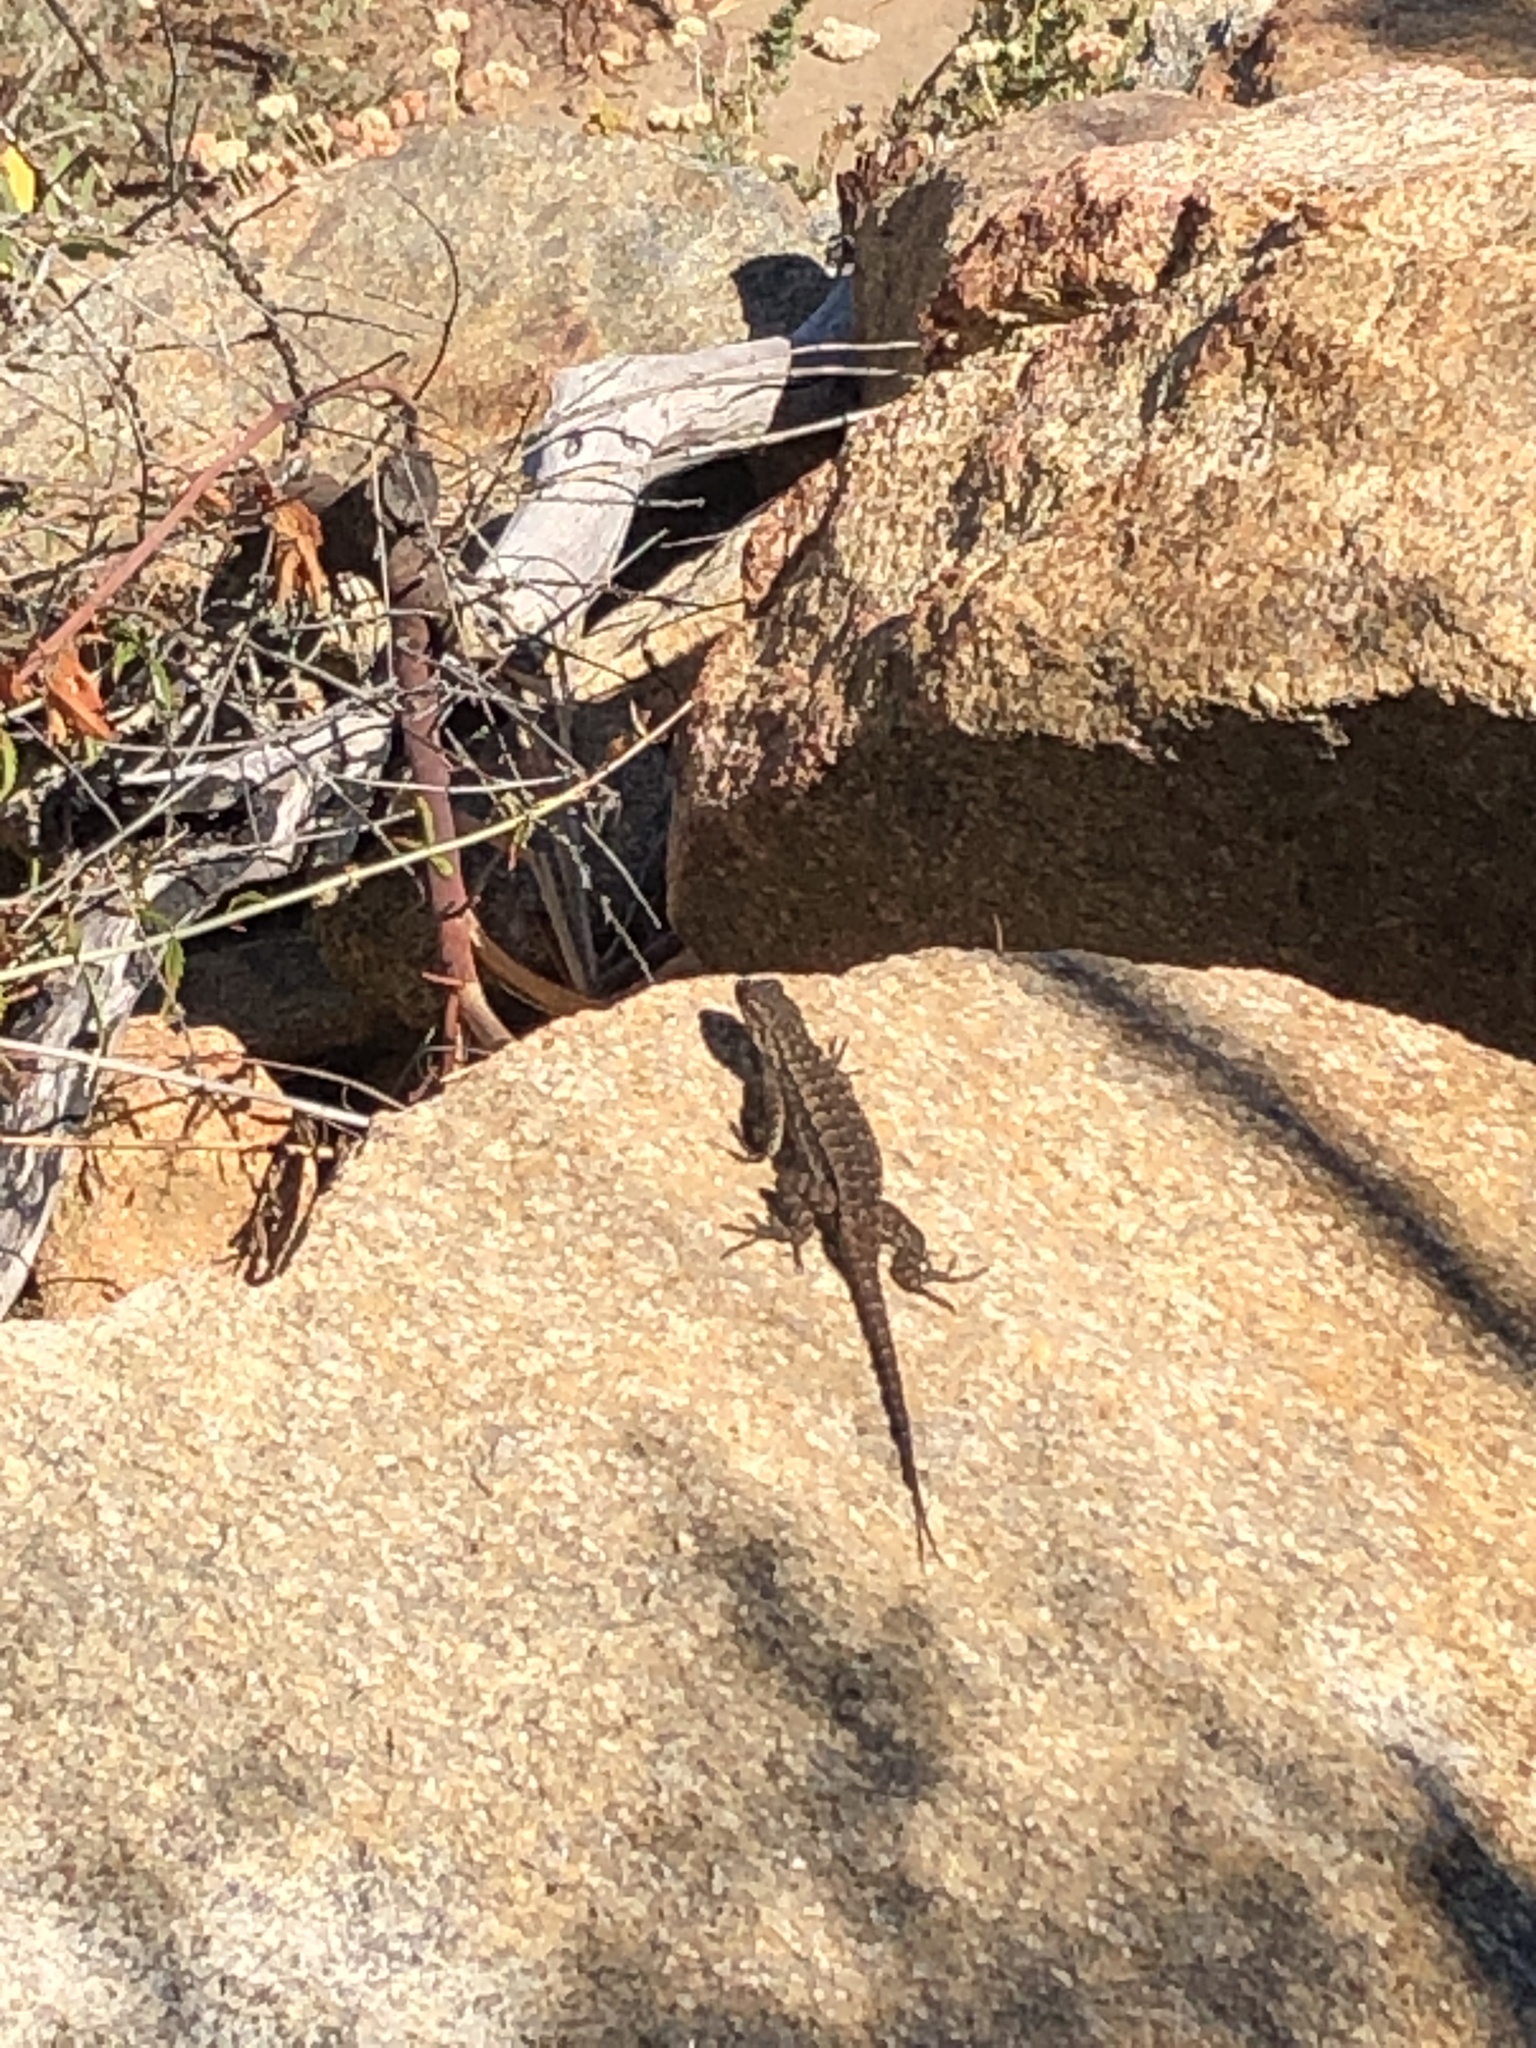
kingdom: Animalia
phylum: Chordata
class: Squamata
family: Phrynosomatidae
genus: Sceloporus
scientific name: Sceloporus occidentalis
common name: Western fence lizard
